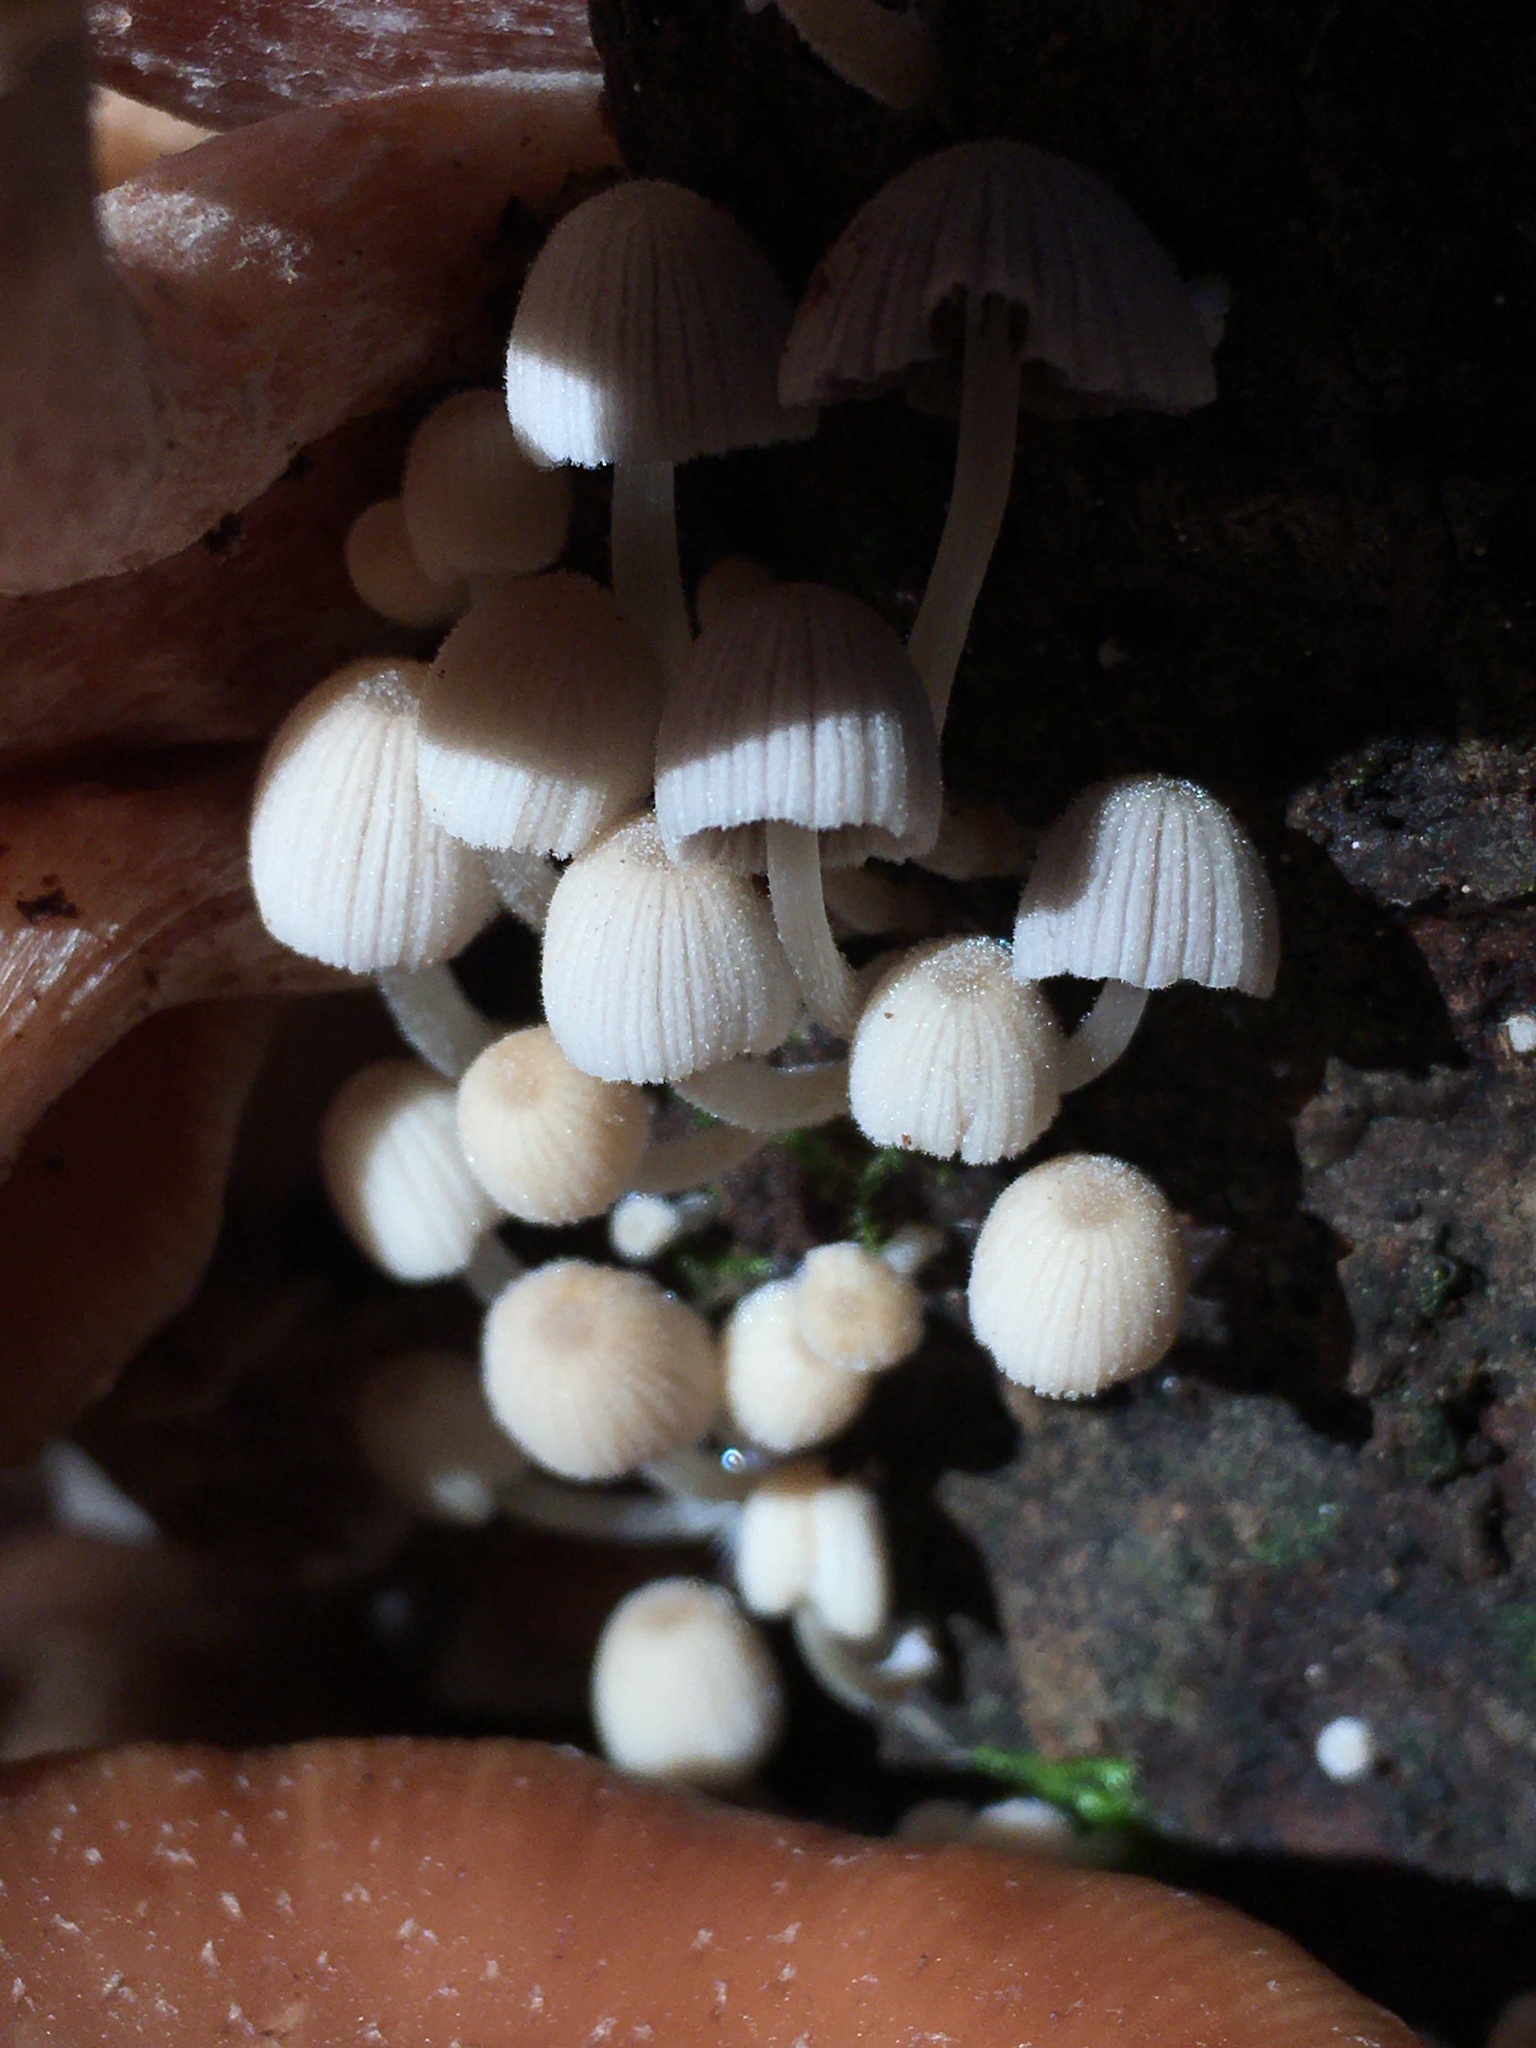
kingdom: Fungi
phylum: Basidiomycota
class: Agaricomycetes
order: Agaricales
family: Psathyrellaceae
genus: Coprinellus
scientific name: Coprinellus disseminatus
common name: Fairies' bonnets
